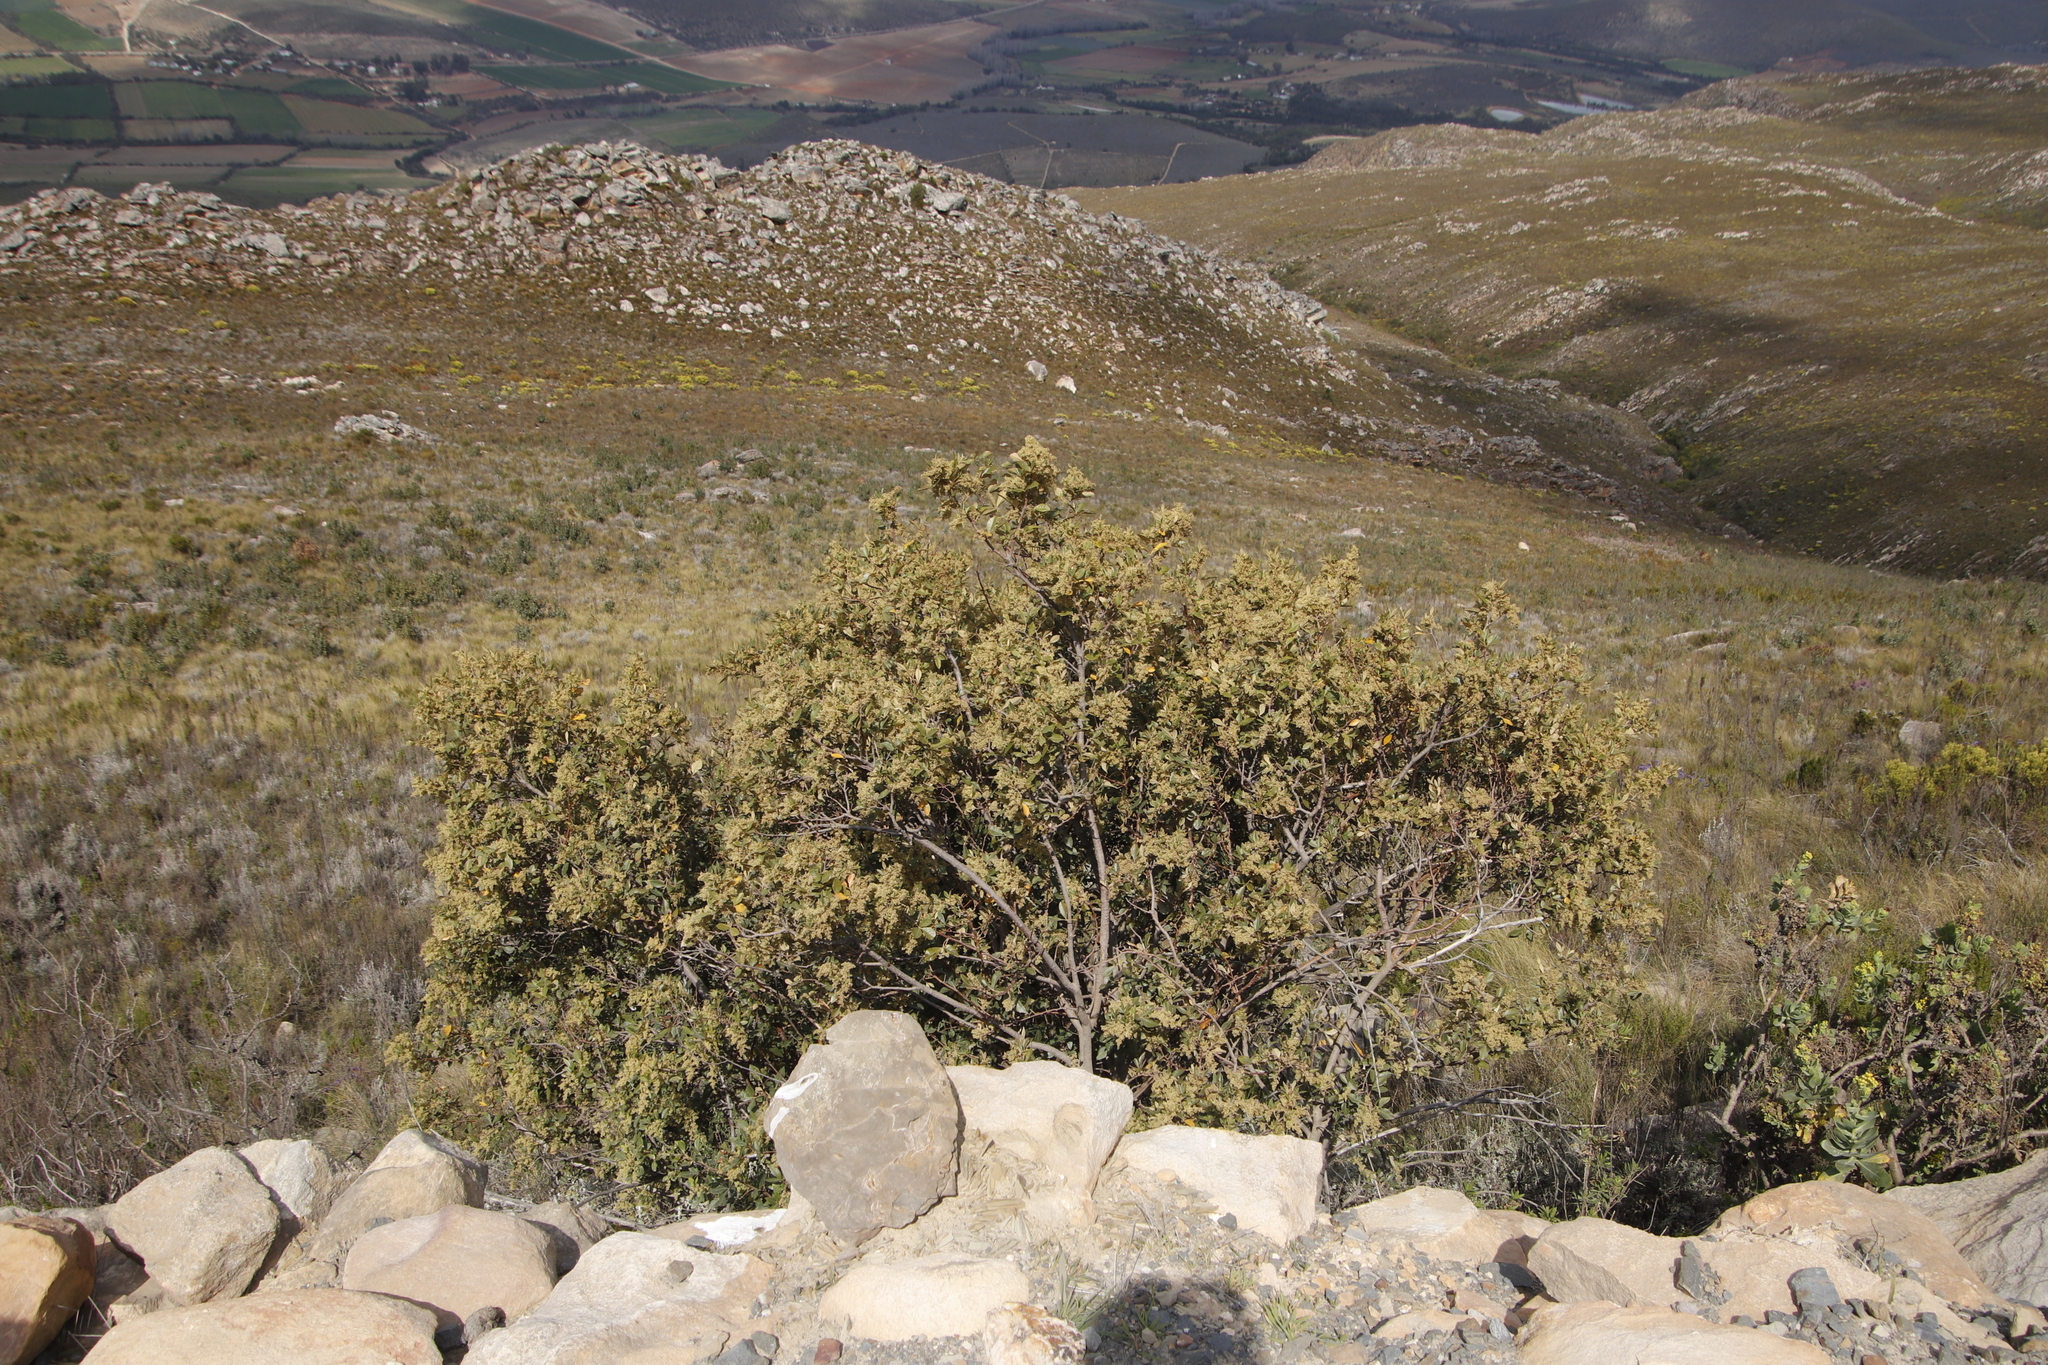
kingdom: Plantae
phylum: Tracheophyta
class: Magnoliopsida
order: Sapindales
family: Anacardiaceae
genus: Searsia
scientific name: Searsia tomentosa
